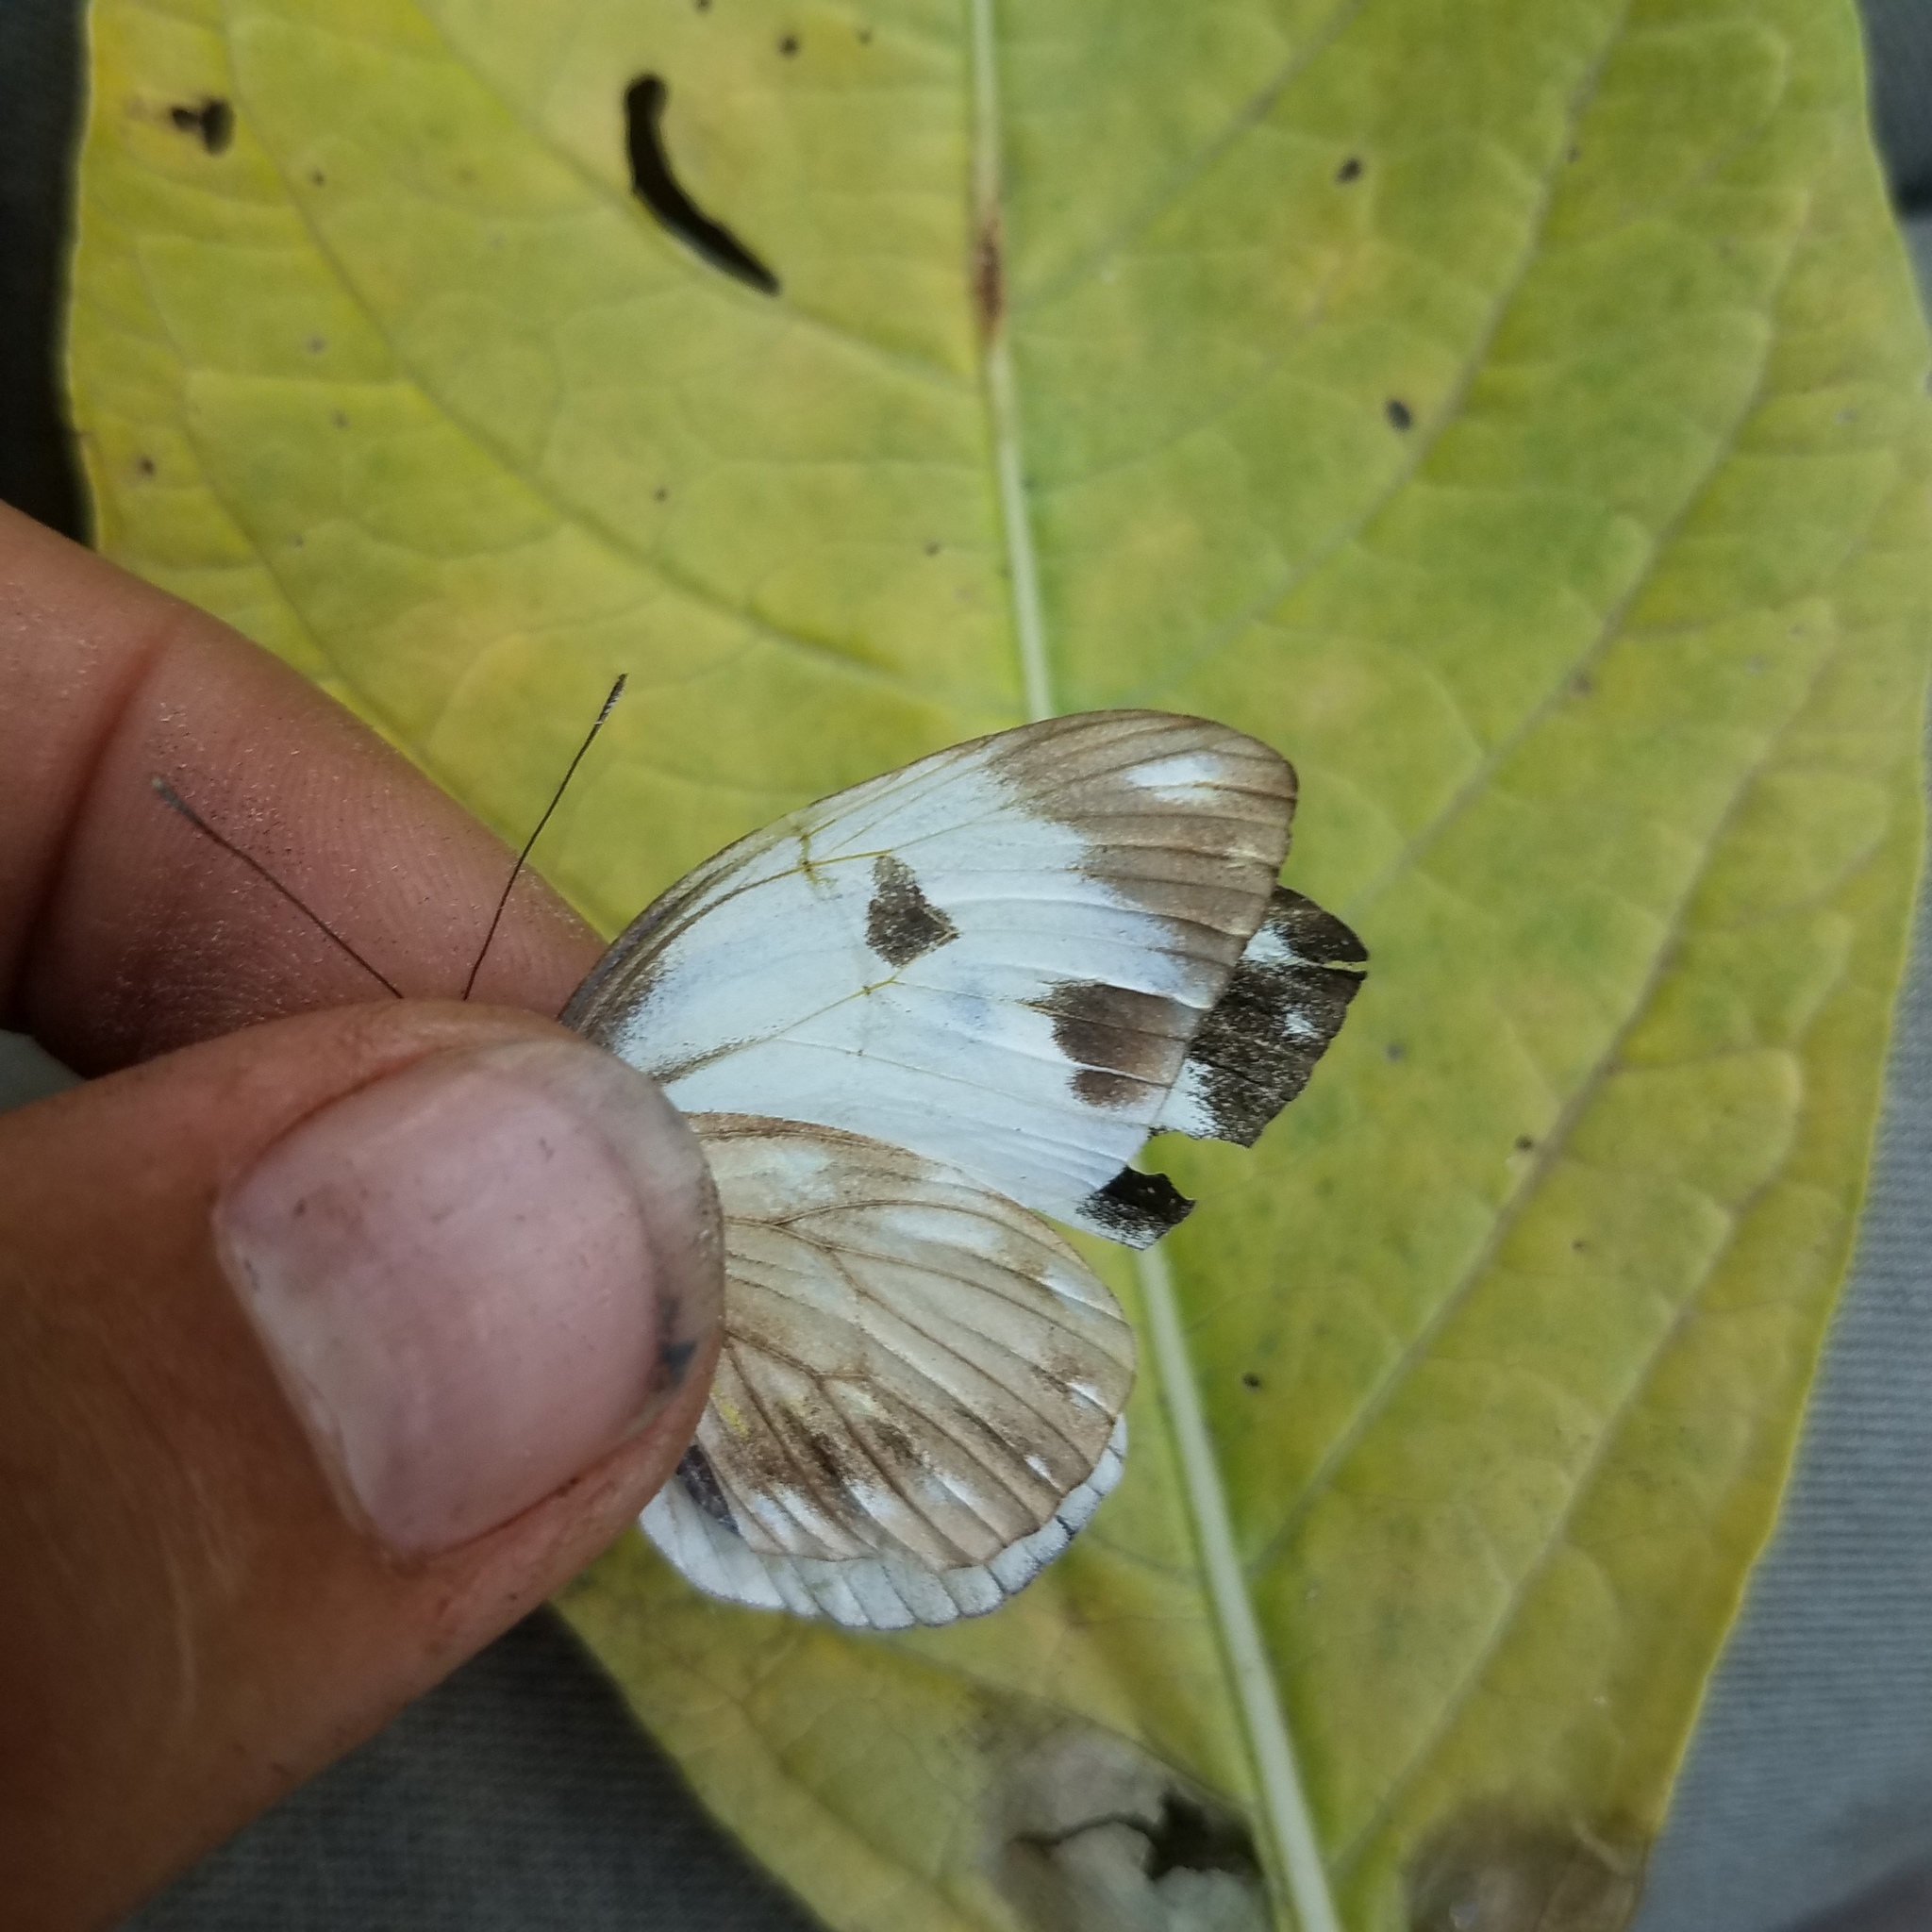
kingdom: Animalia
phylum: Arthropoda
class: Insecta
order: Lepidoptera
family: Pieridae
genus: Pieriballia
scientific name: Pieriballia viardi
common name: Painted white
